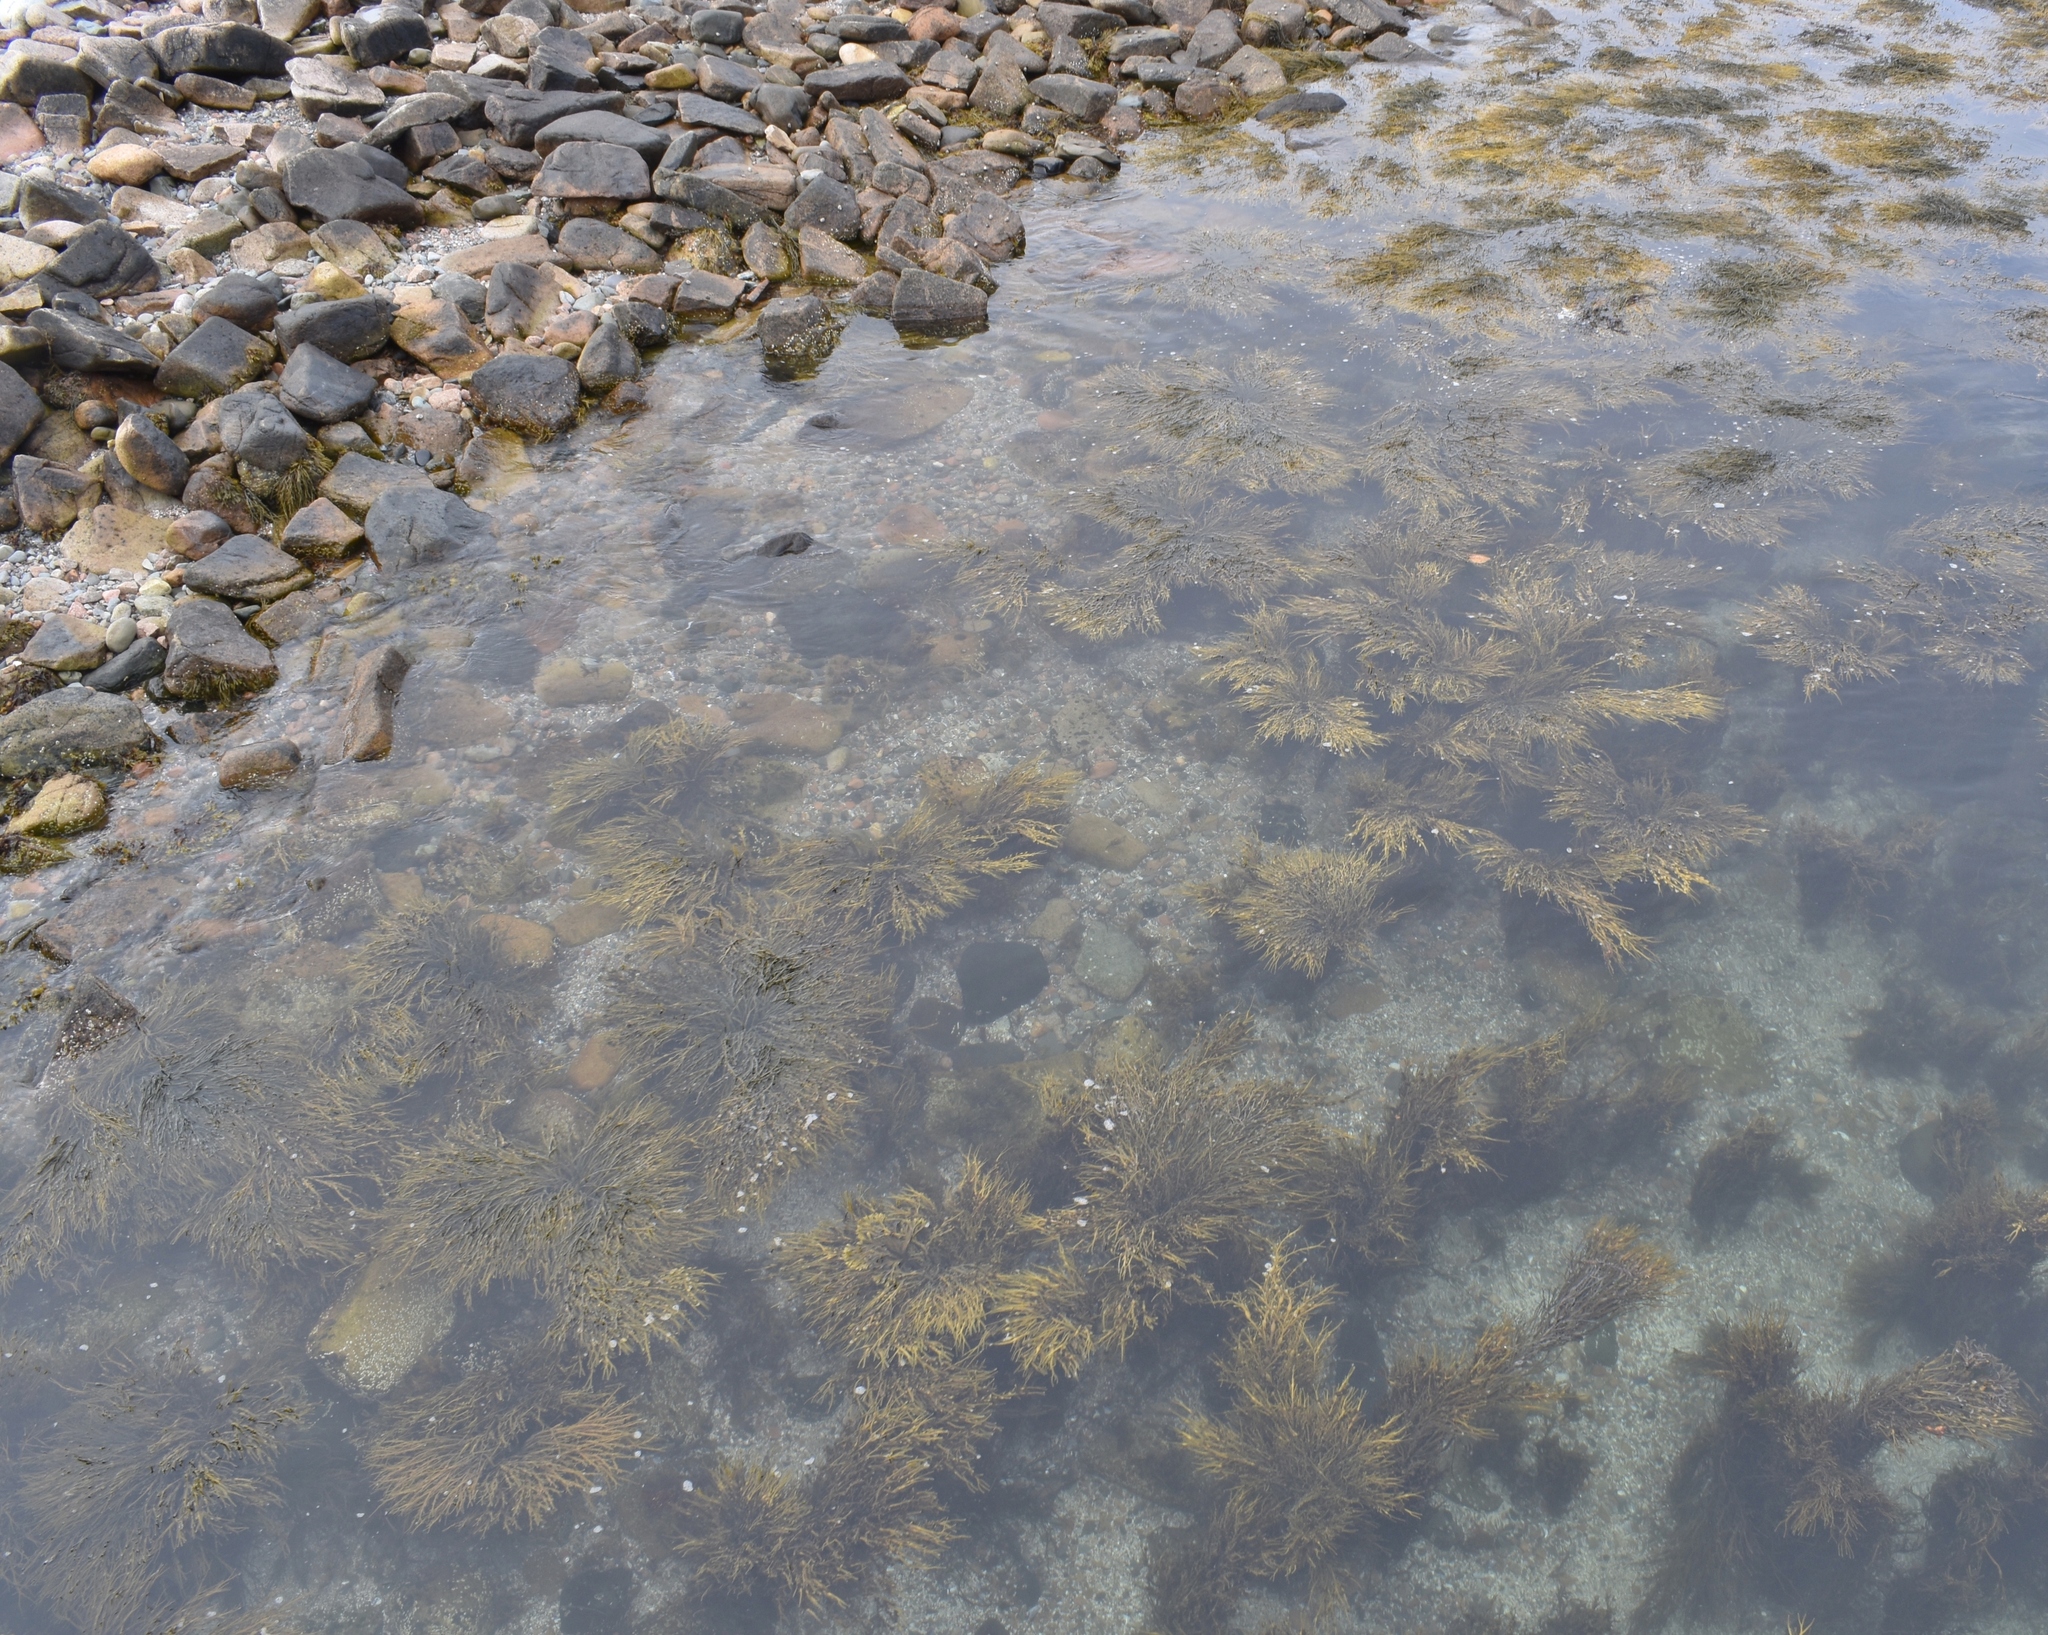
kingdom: Chromista
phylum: Ochrophyta
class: Phaeophyceae
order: Fucales
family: Fucaceae
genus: Ascophyllum
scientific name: Ascophyllum nodosum
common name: Knotted wrack
